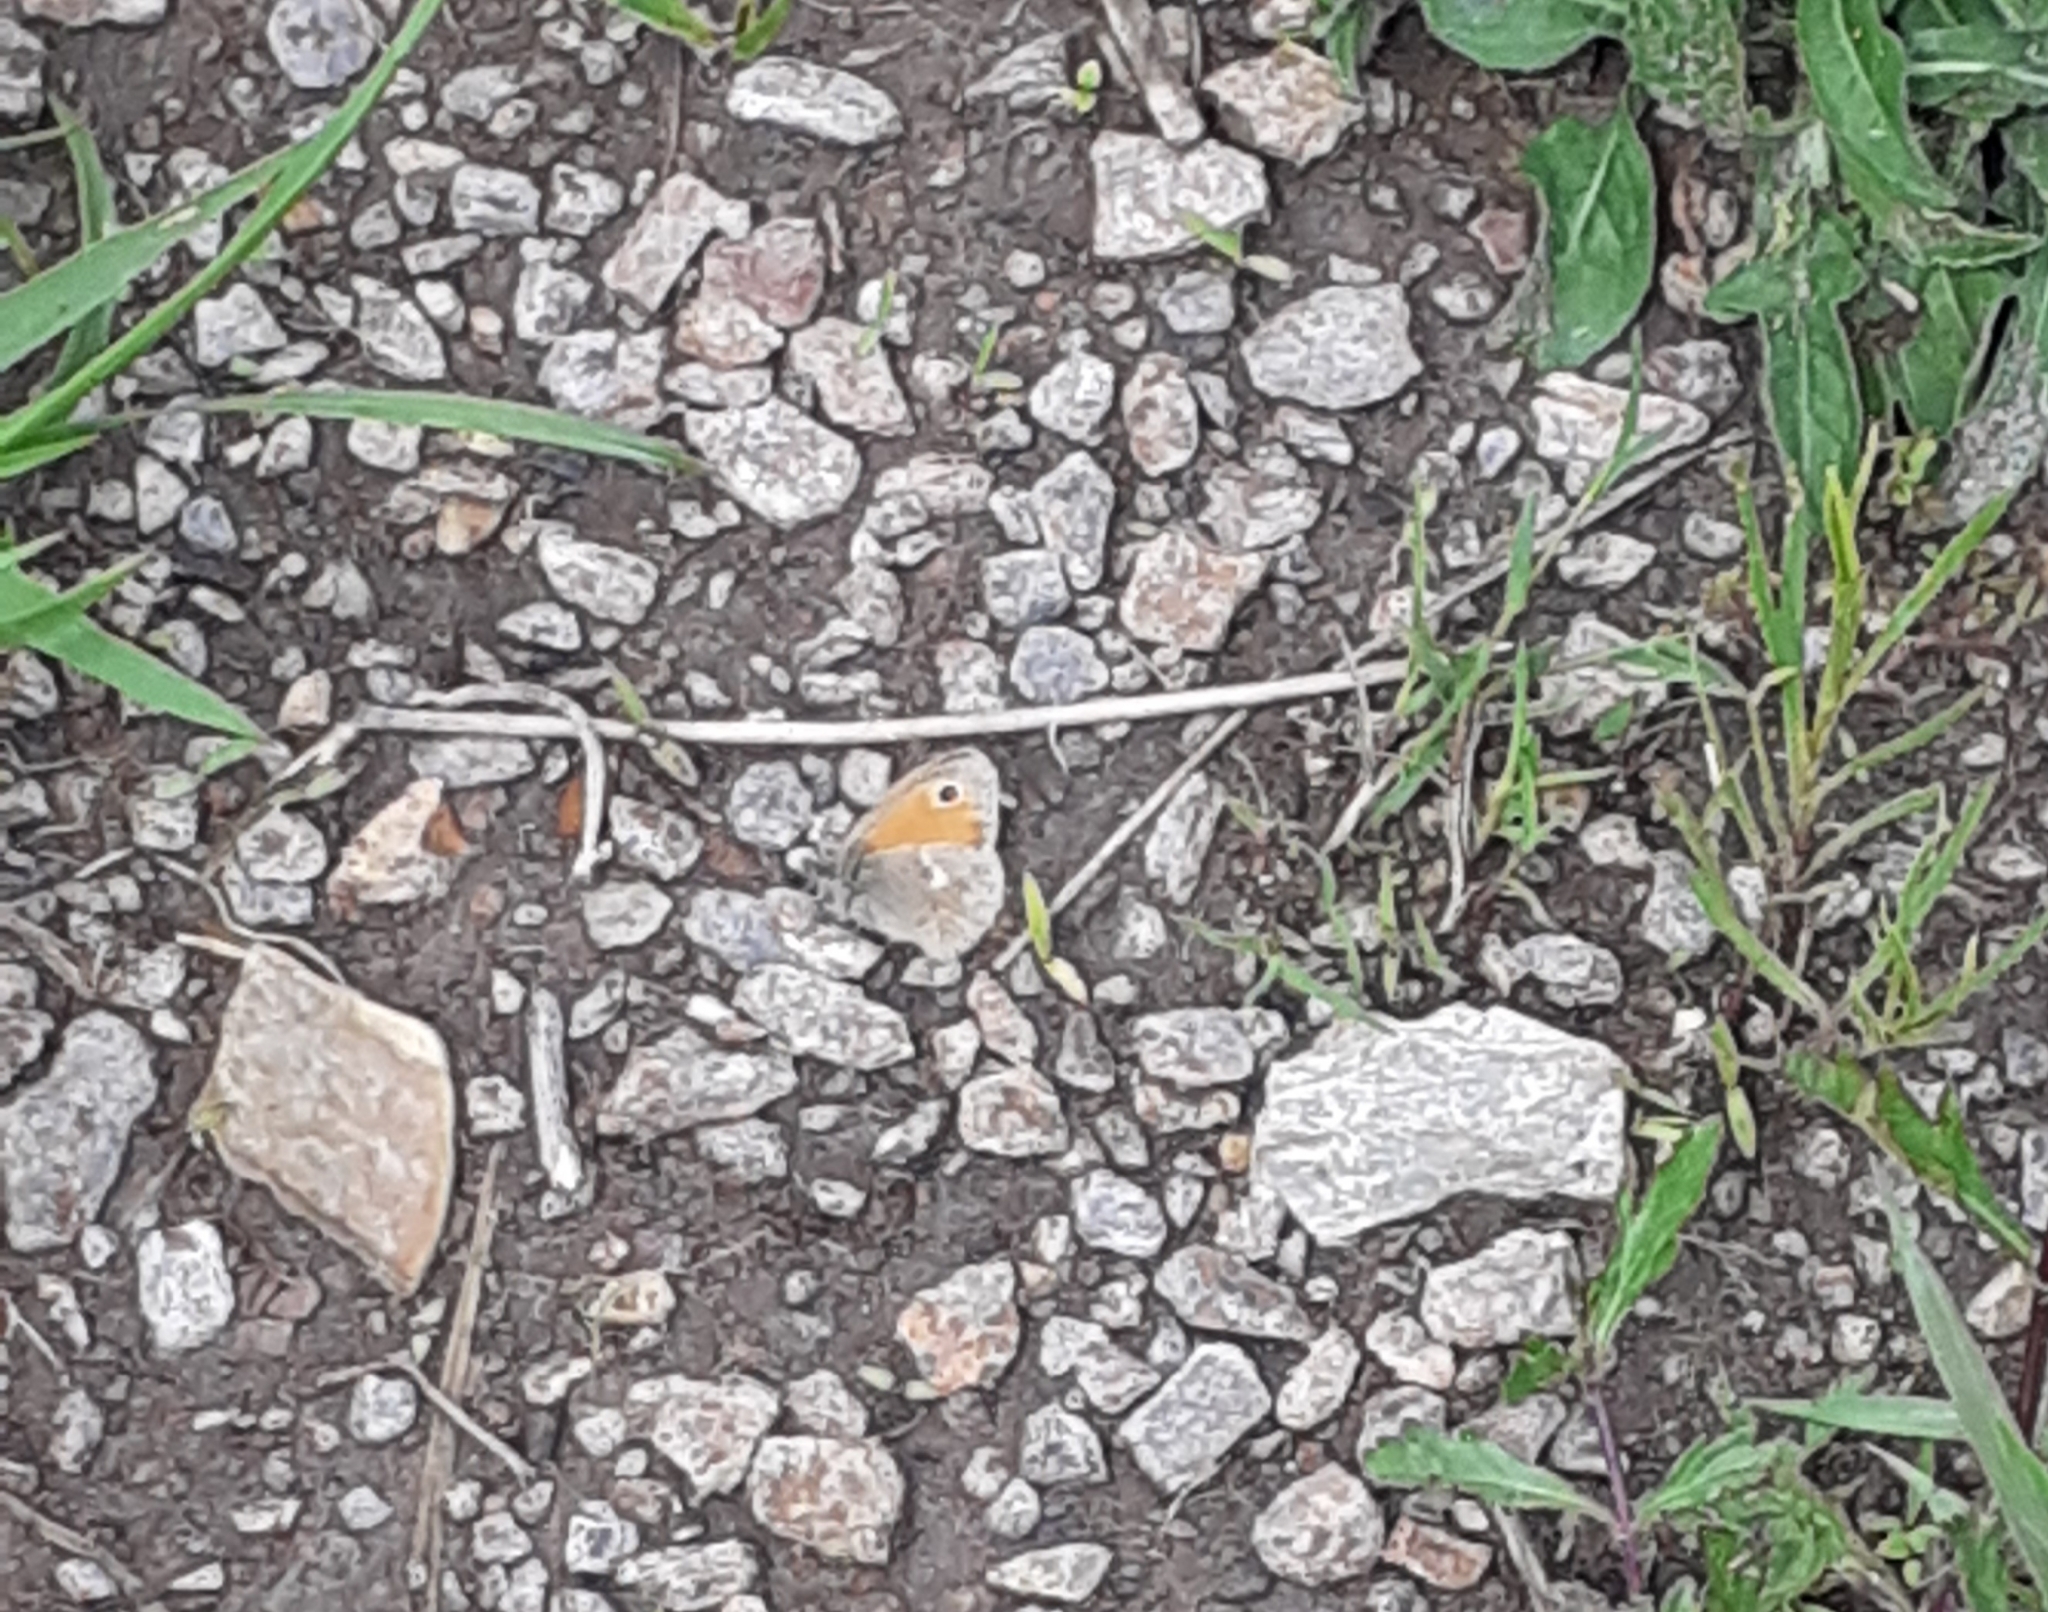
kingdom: Animalia
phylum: Arthropoda
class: Insecta
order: Lepidoptera
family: Nymphalidae
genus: Coenonympha
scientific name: Coenonympha pamphilus
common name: Small heath
